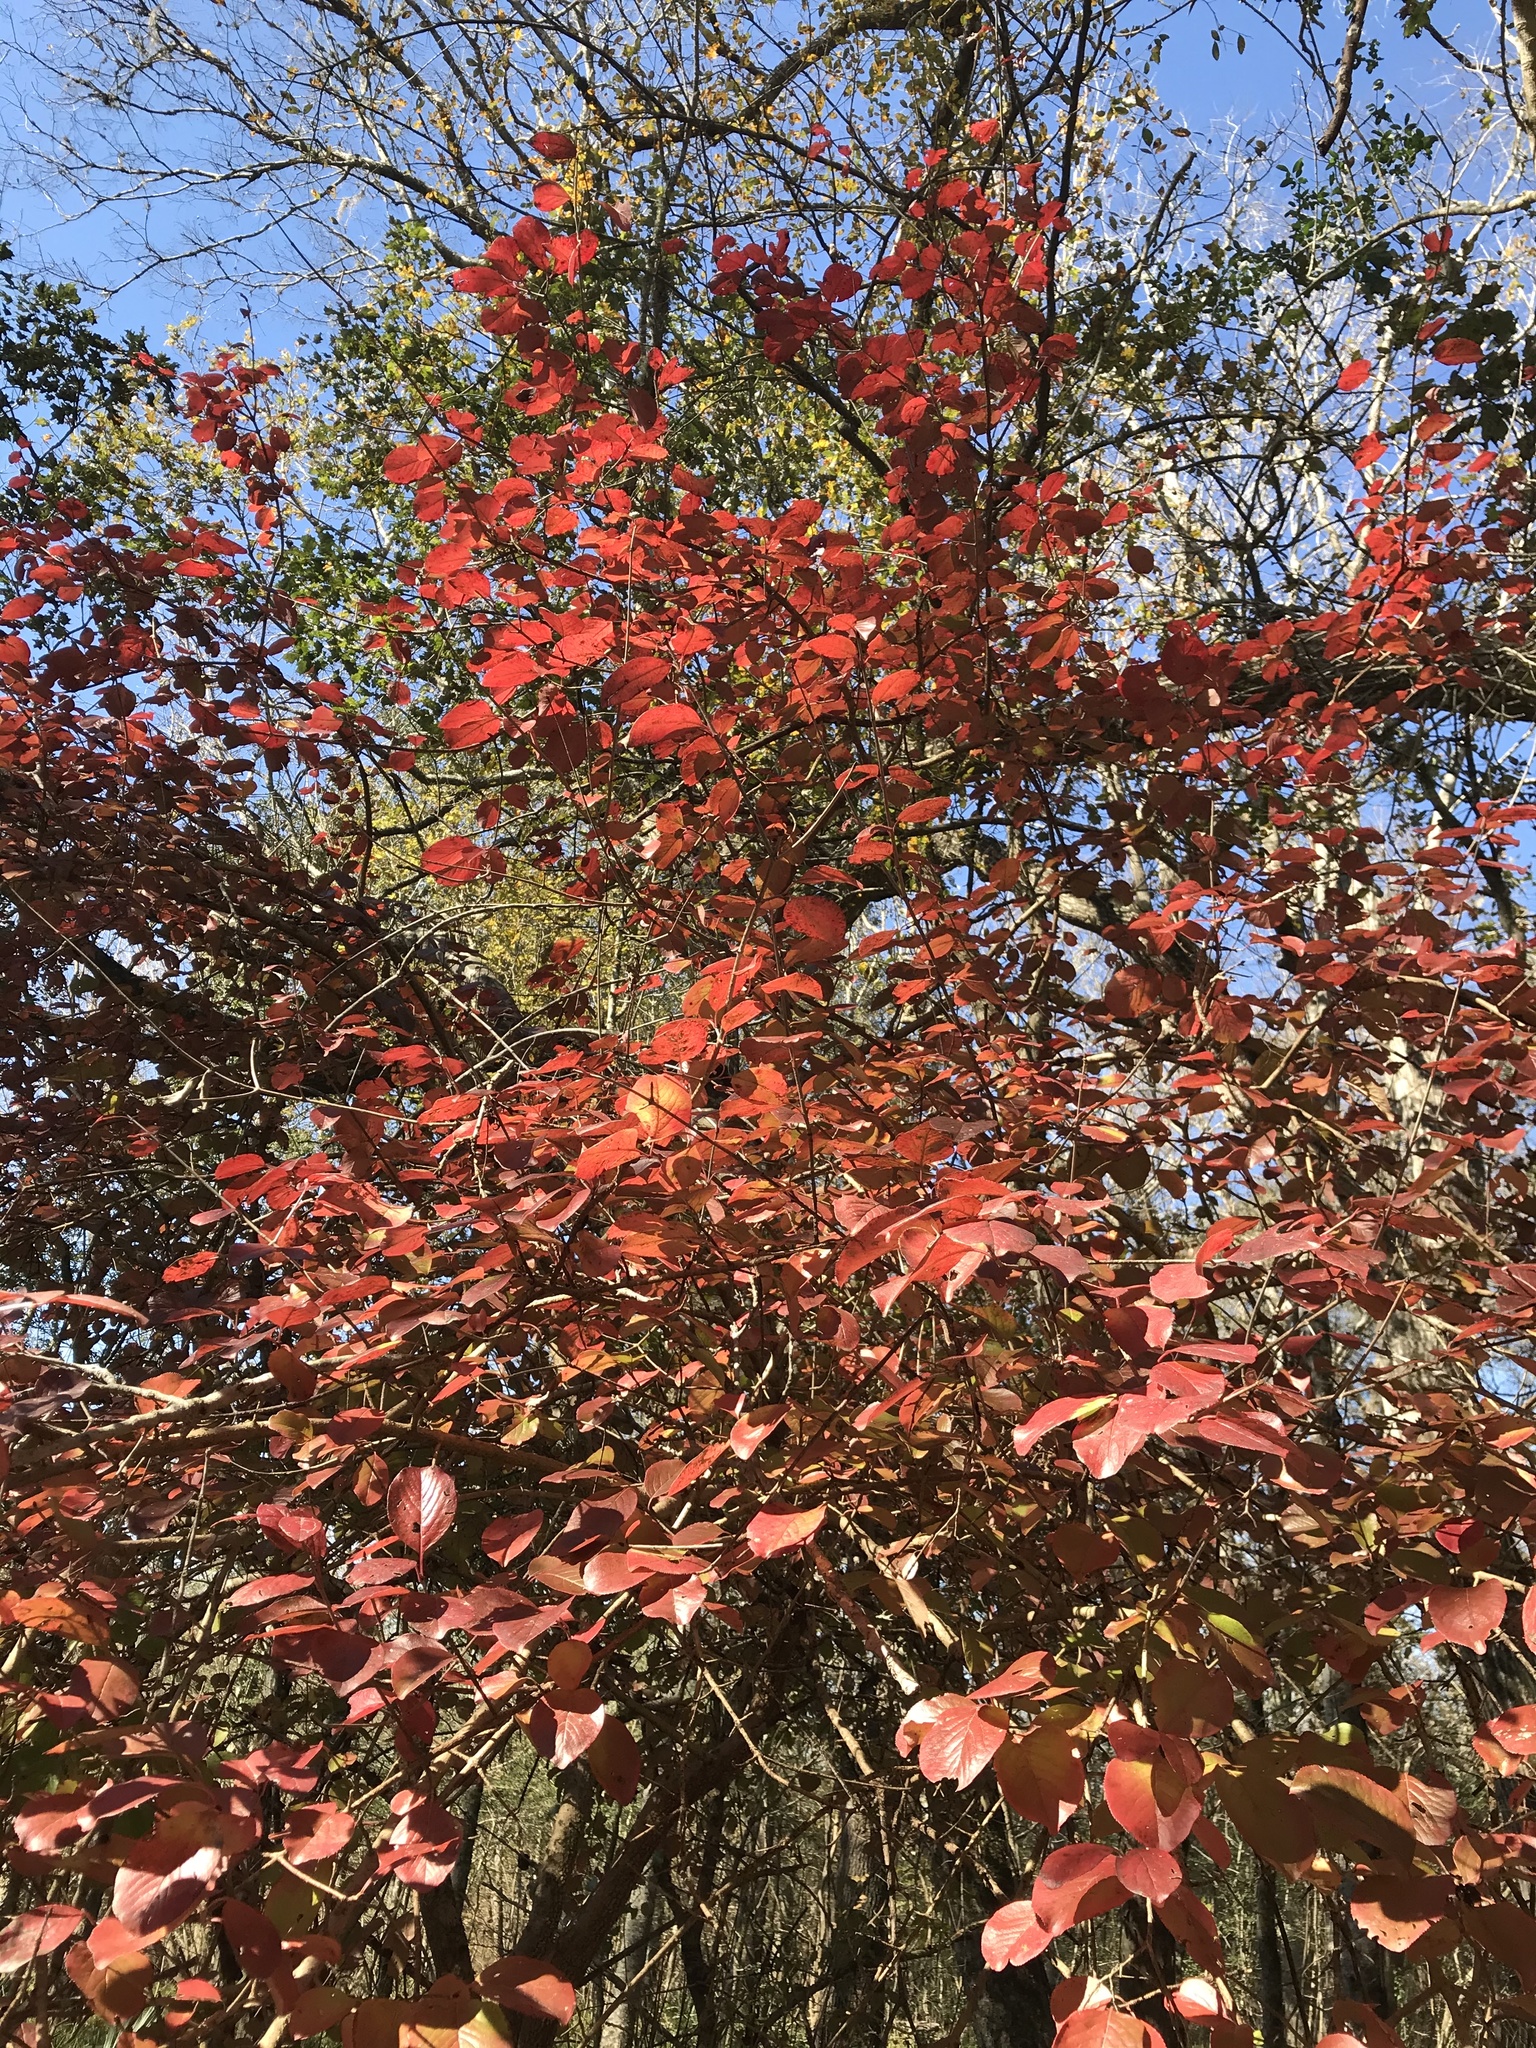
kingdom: Plantae
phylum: Tracheophyta
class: Magnoliopsida
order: Cornales
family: Nyssaceae
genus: Nyssa
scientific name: Nyssa sylvatica
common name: Black tupelo
